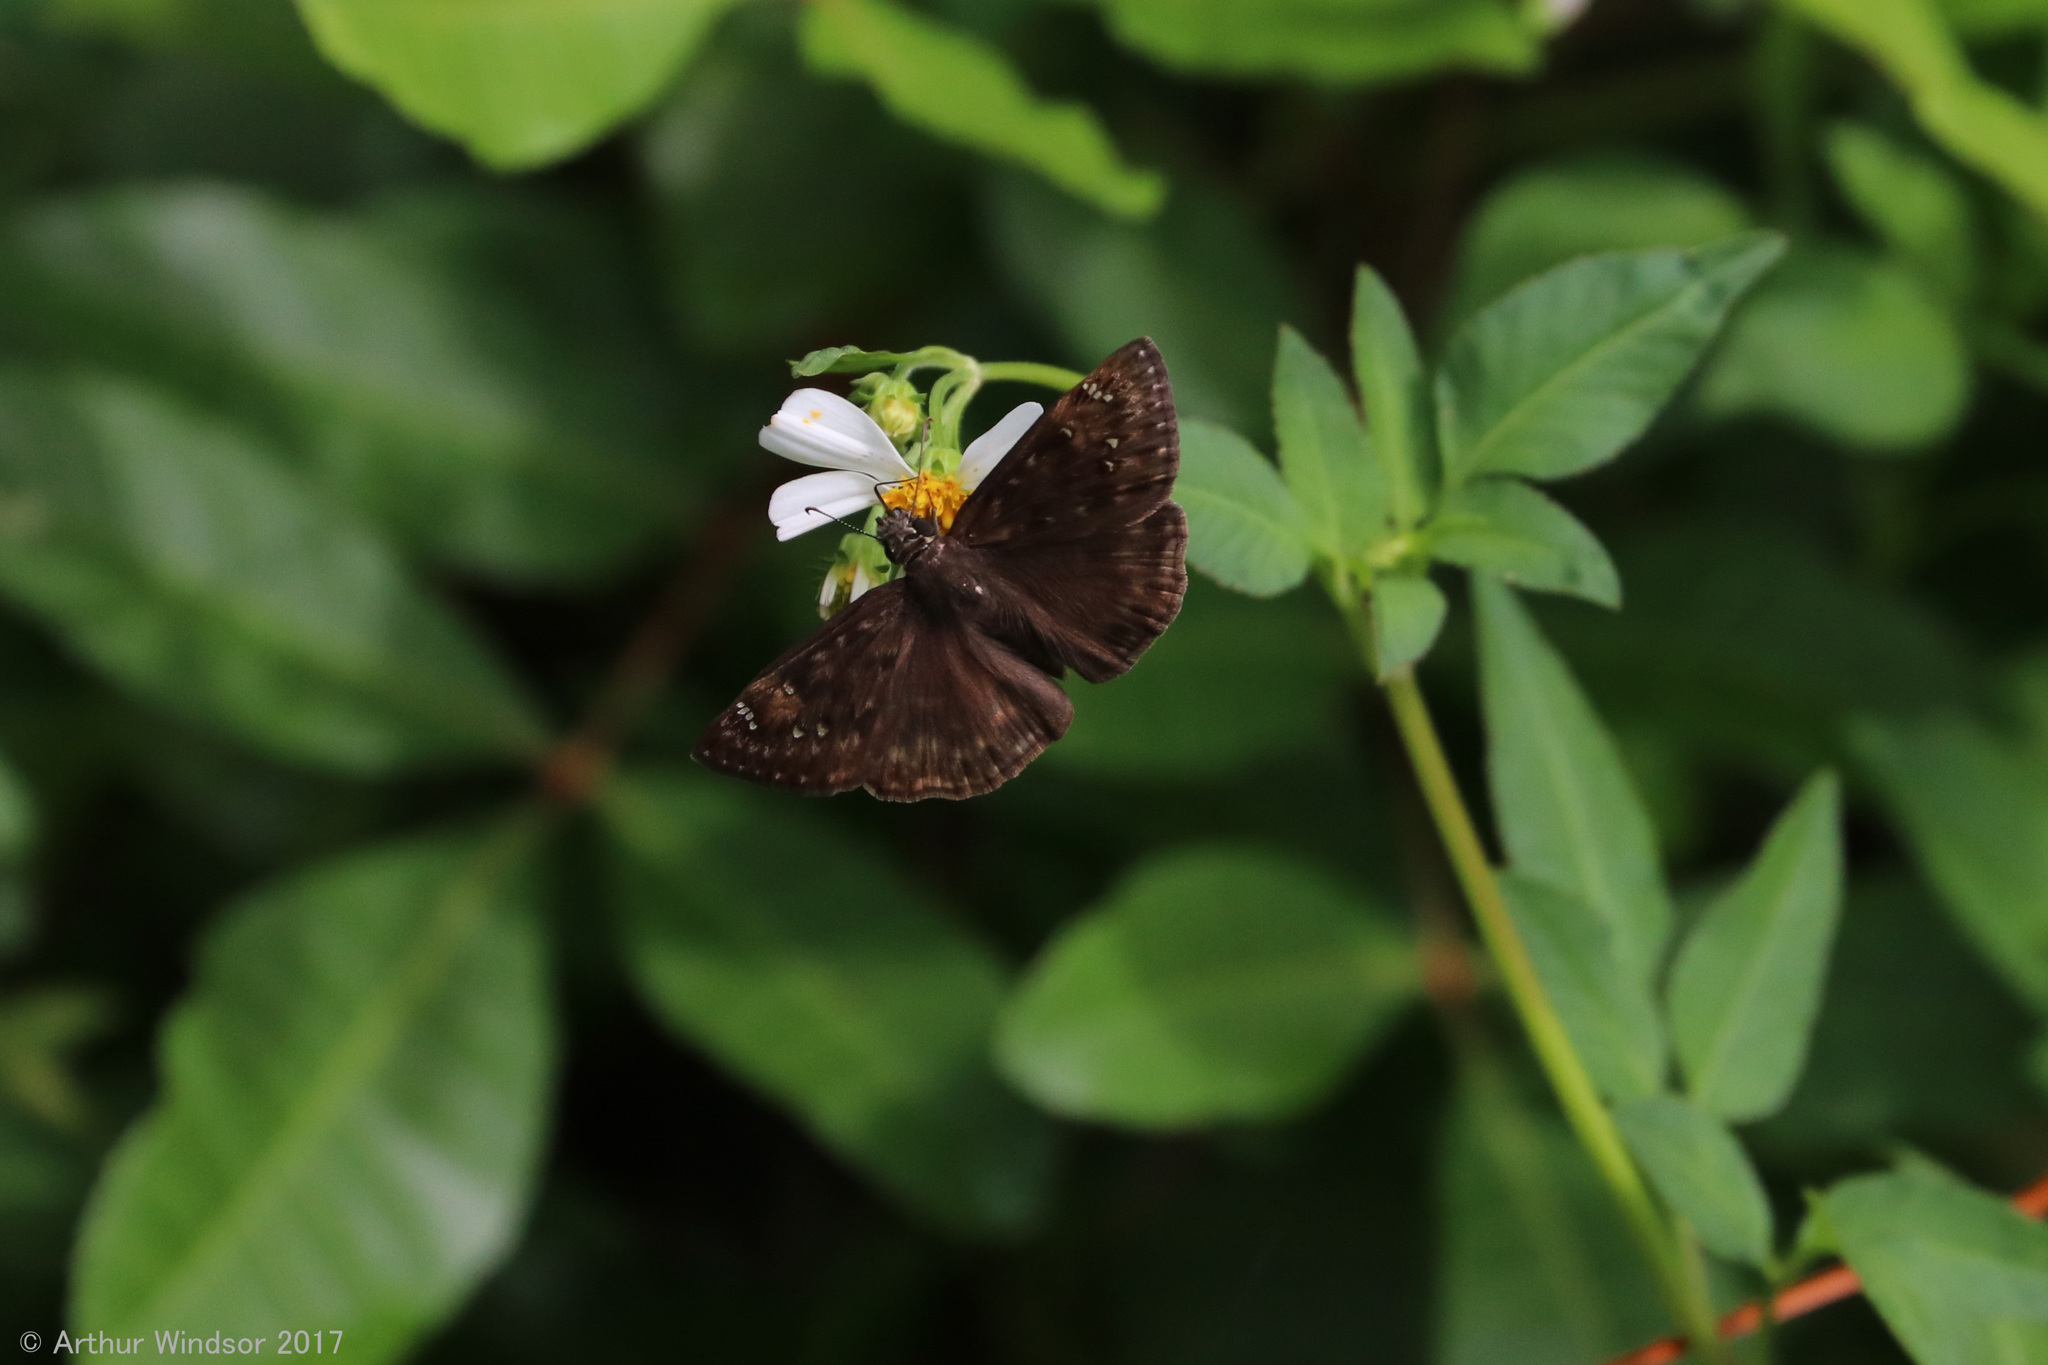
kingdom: Animalia
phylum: Arthropoda
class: Insecta
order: Lepidoptera
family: Hesperiidae
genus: Erynnis
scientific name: Erynnis horatius
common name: Horace's duskywing
